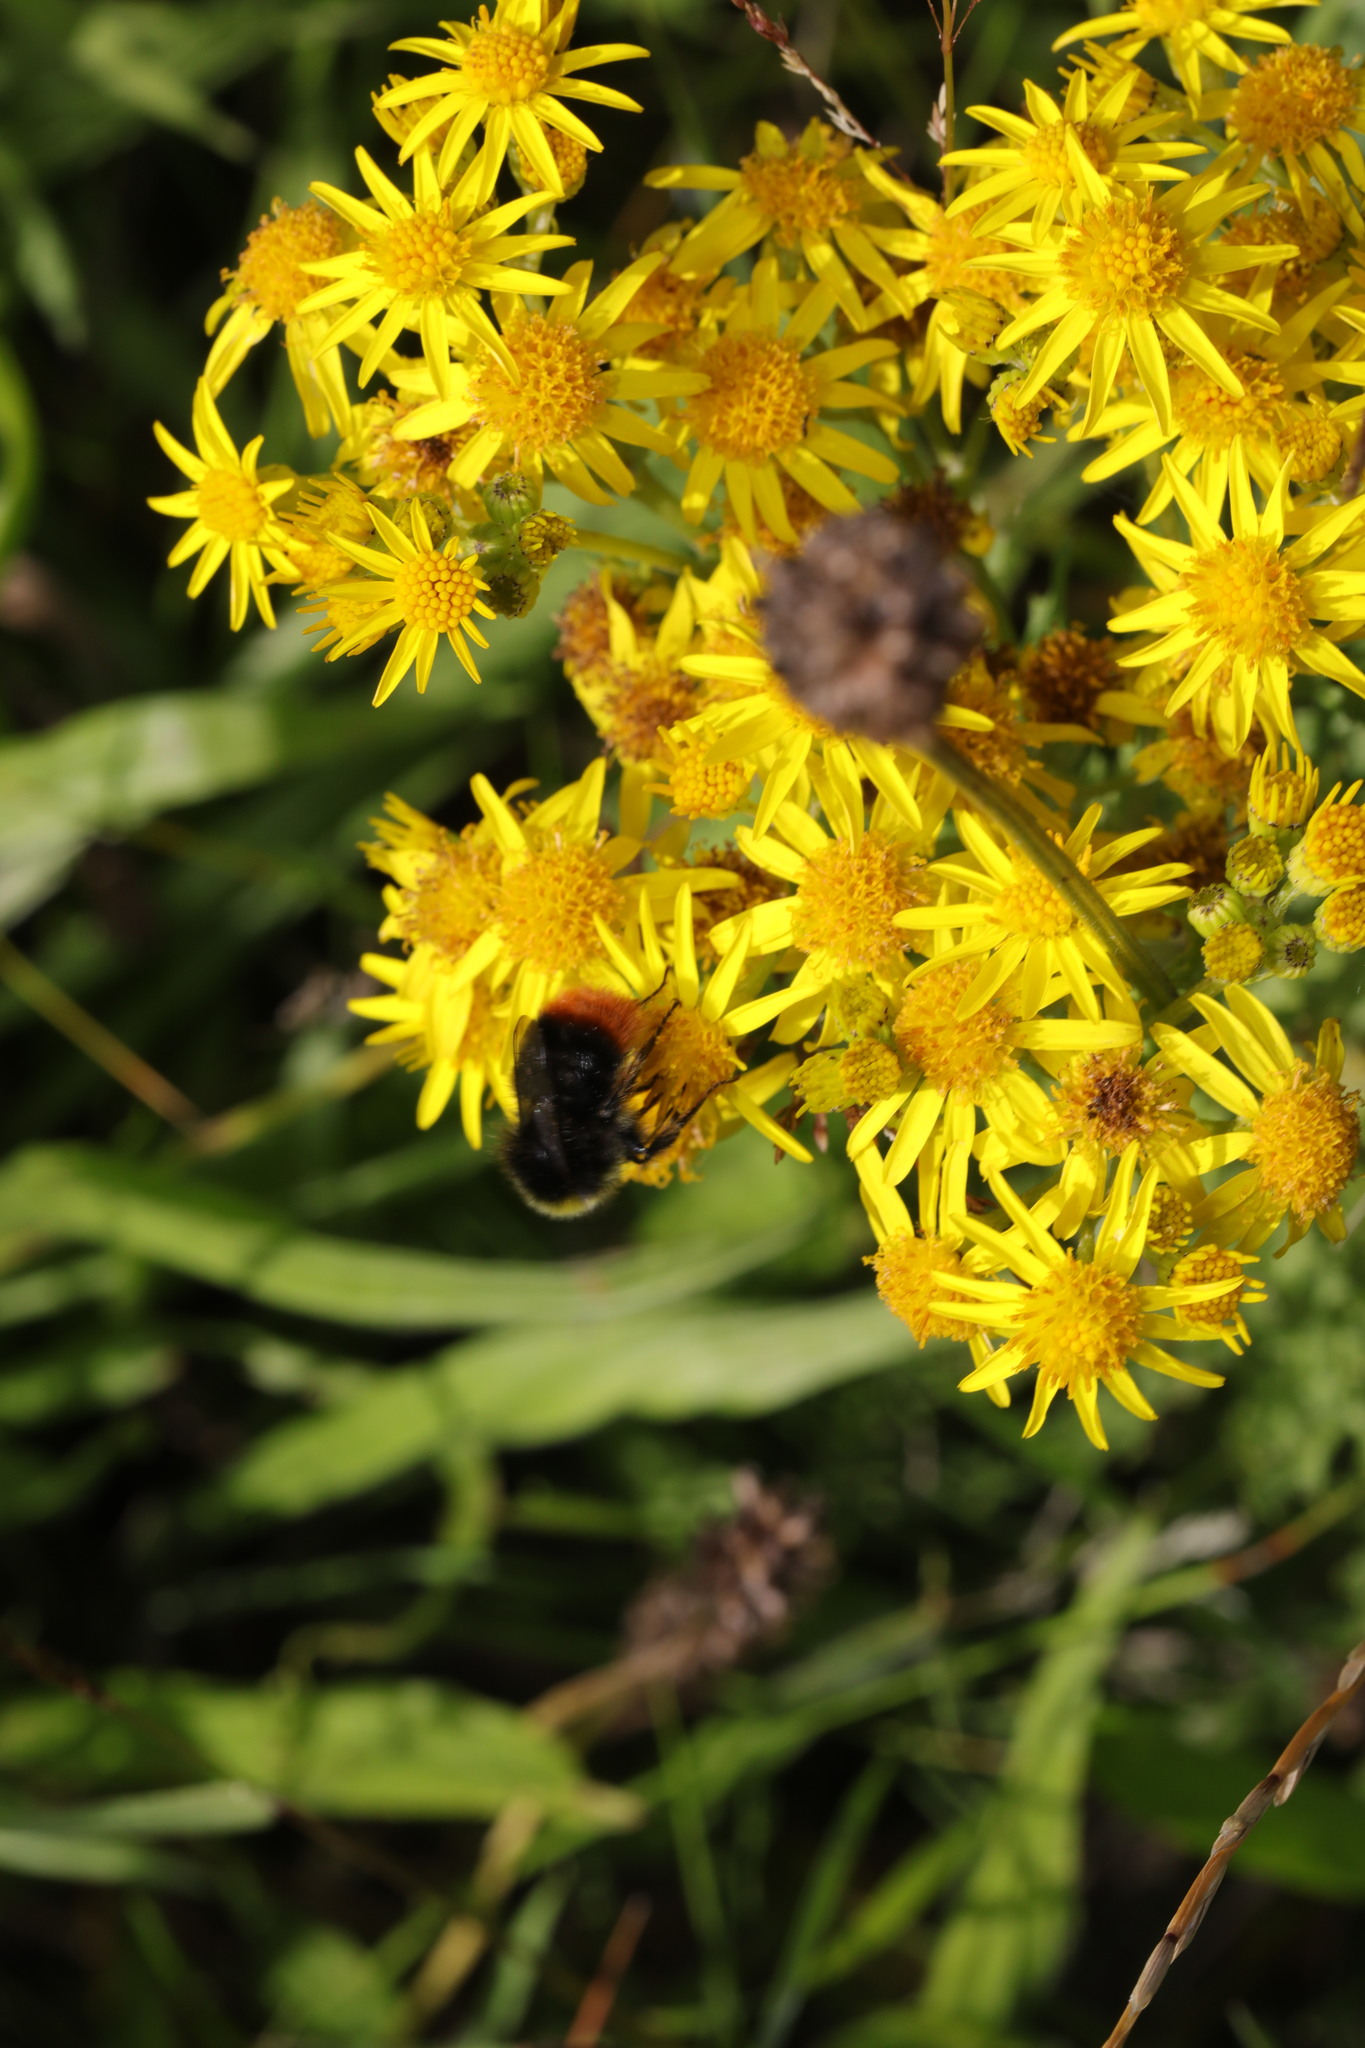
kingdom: Animalia
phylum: Arthropoda
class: Insecta
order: Hymenoptera
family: Apidae
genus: Bombus
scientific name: Bombus lapidarius
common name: Large red-tailed humble-bee
